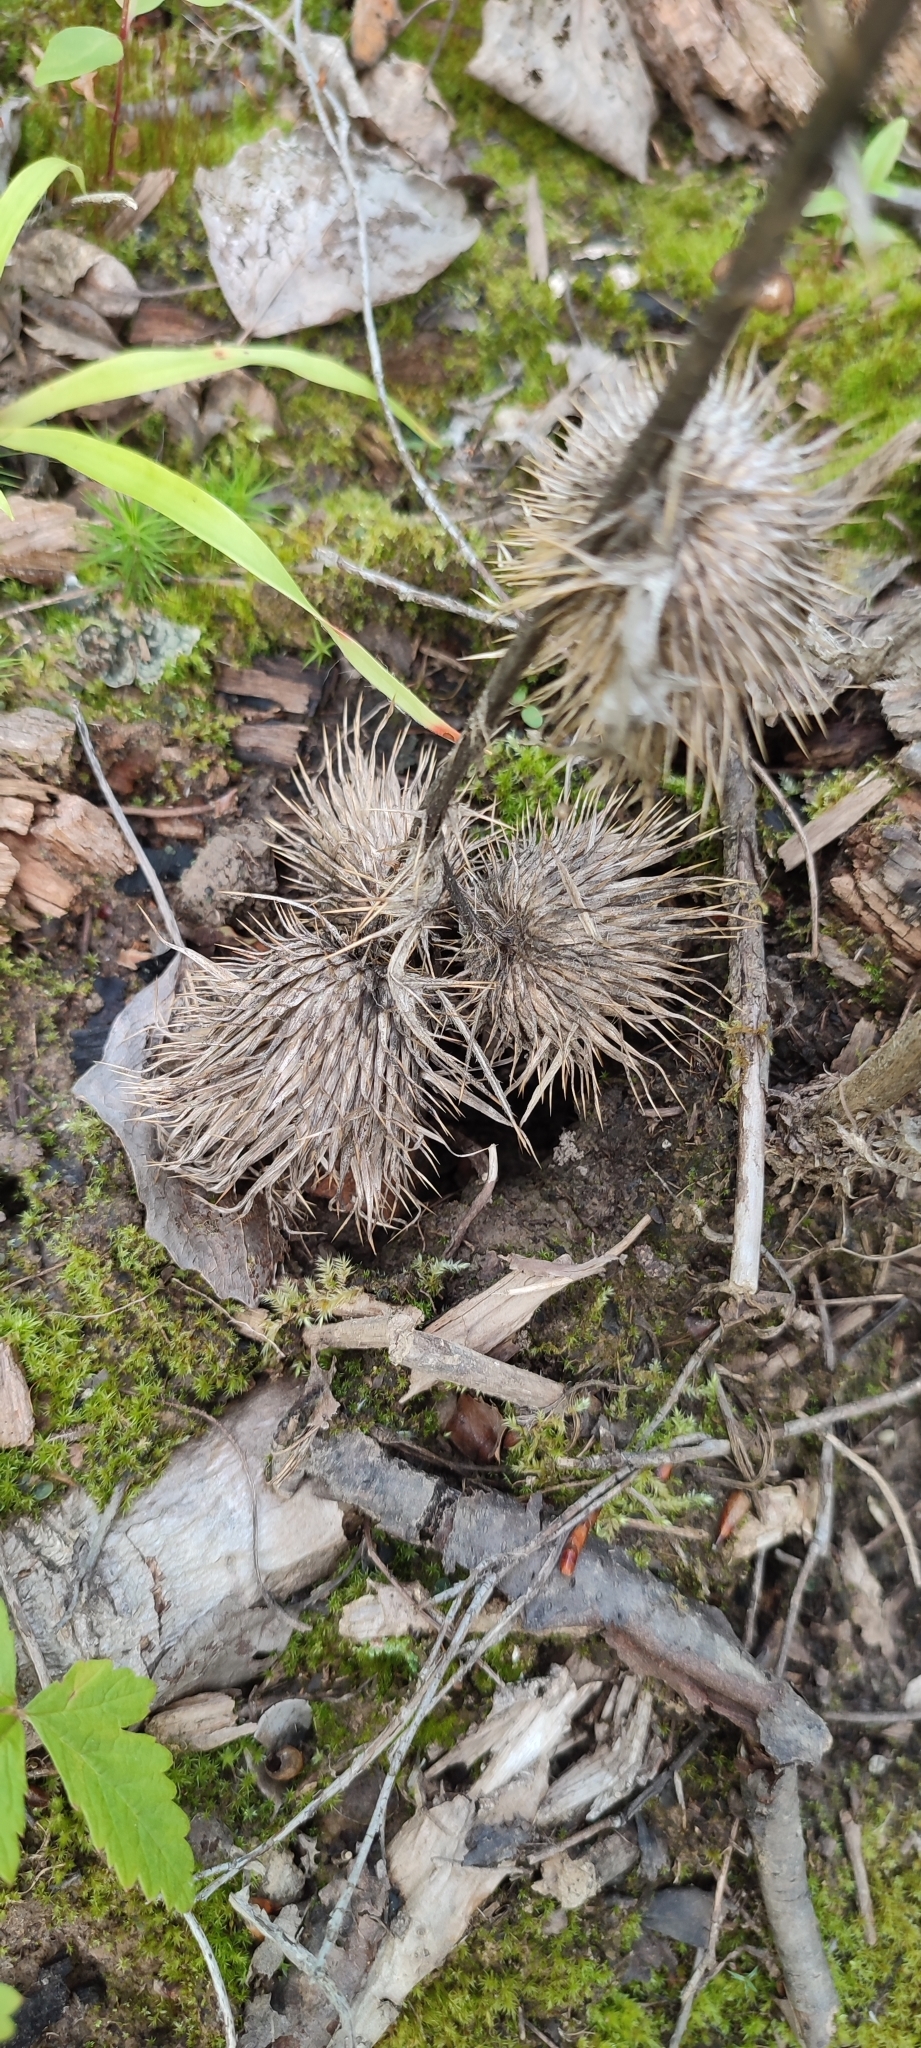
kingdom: Plantae
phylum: Tracheophyta
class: Magnoliopsida
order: Asterales
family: Asteraceae
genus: Cirsium
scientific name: Cirsium vulgare
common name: Bull thistle
